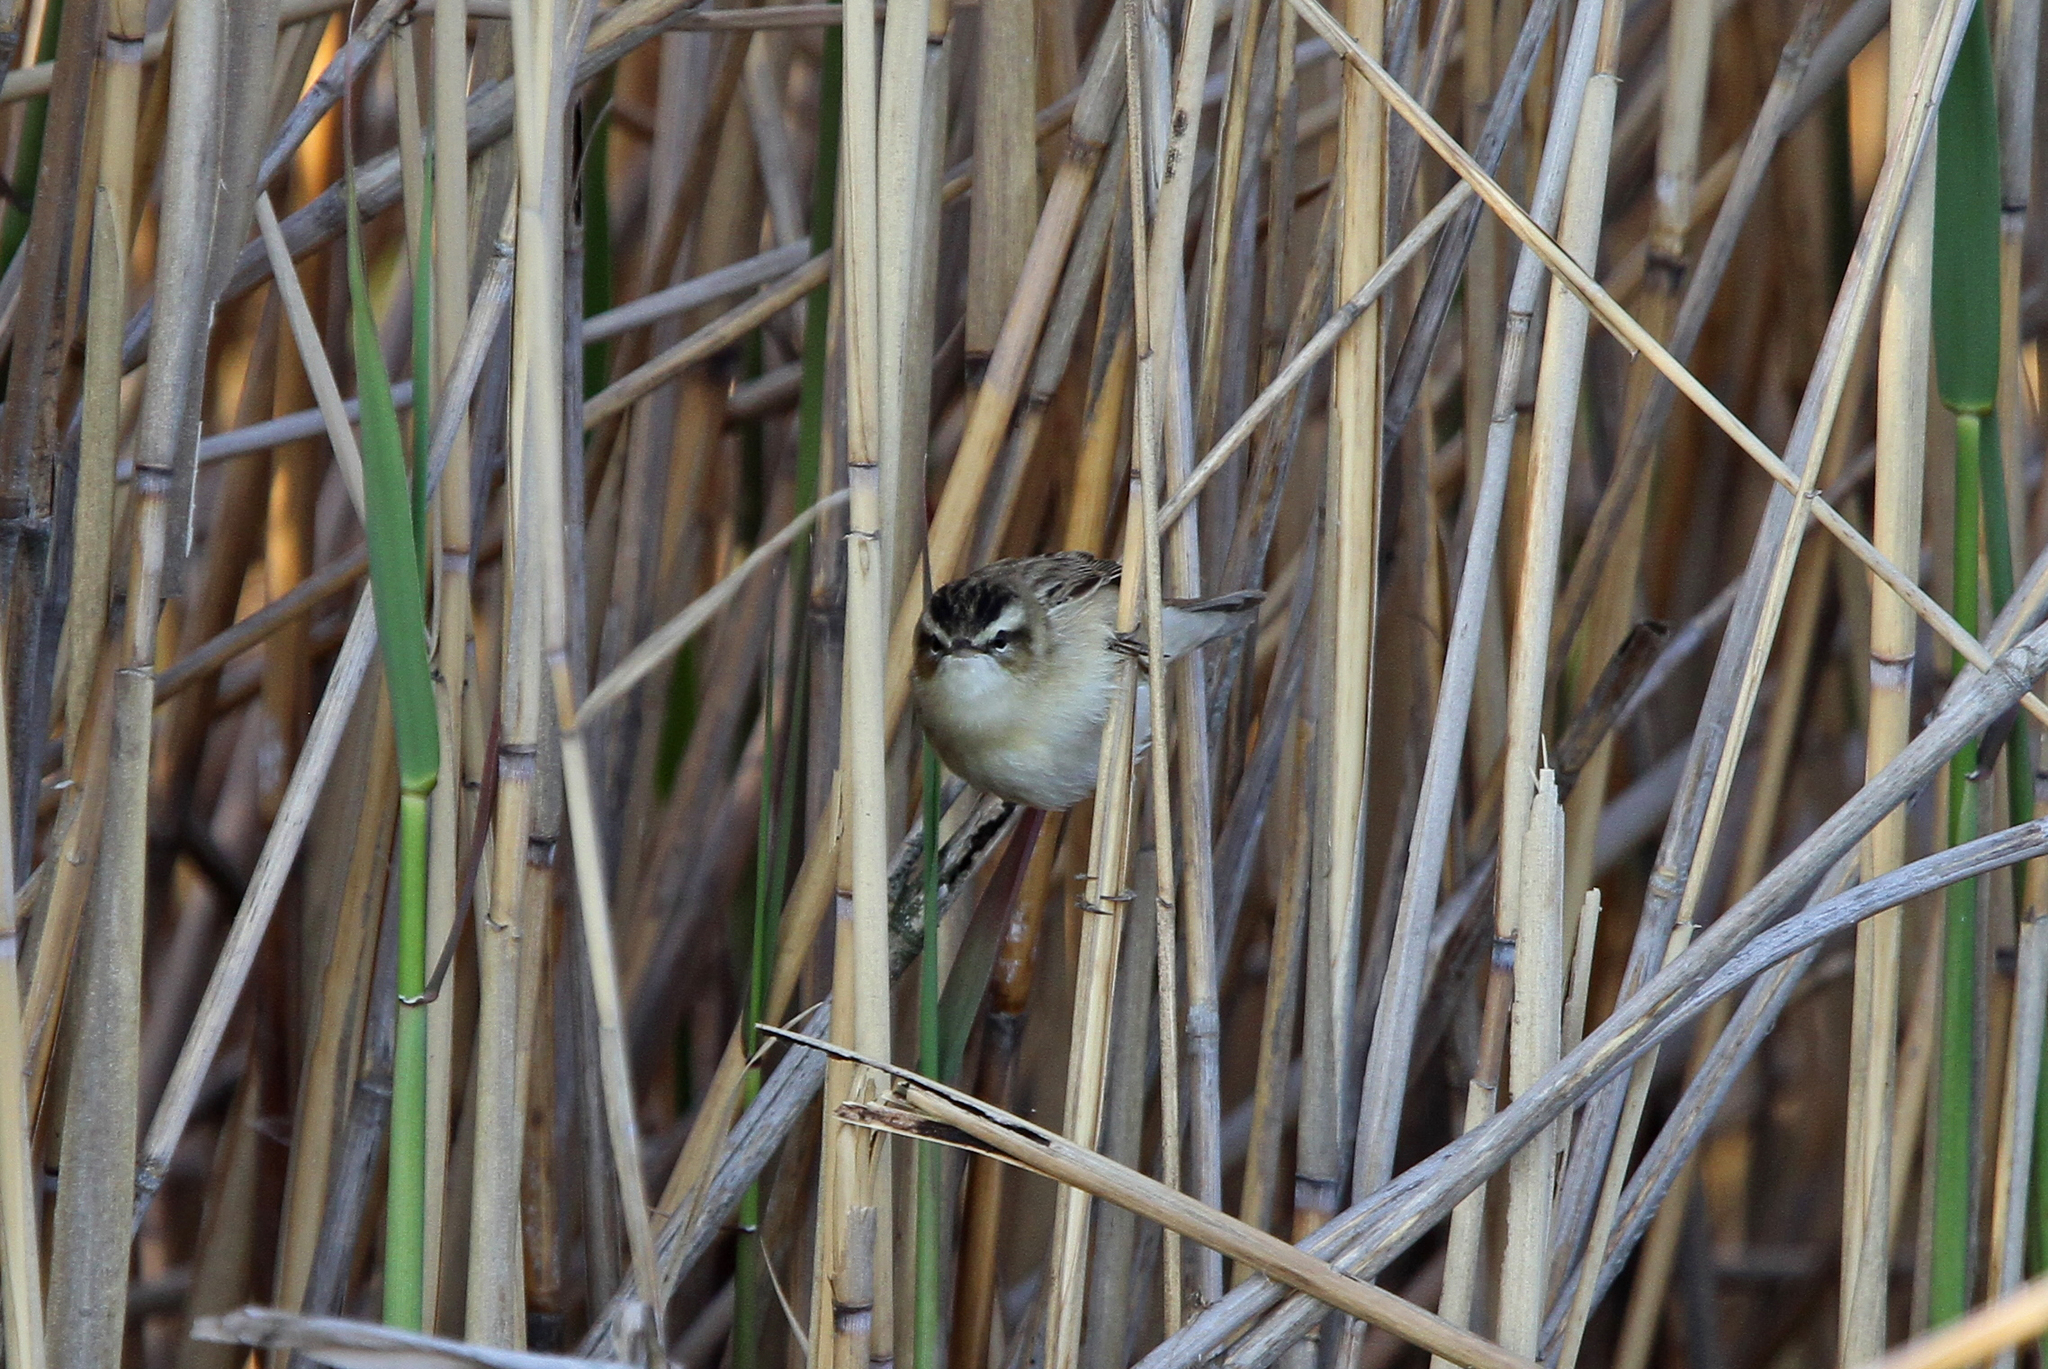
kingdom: Animalia
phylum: Chordata
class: Aves
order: Passeriformes
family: Acrocephalidae
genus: Acrocephalus
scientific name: Acrocephalus schoenobaenus
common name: Sedge warbler
